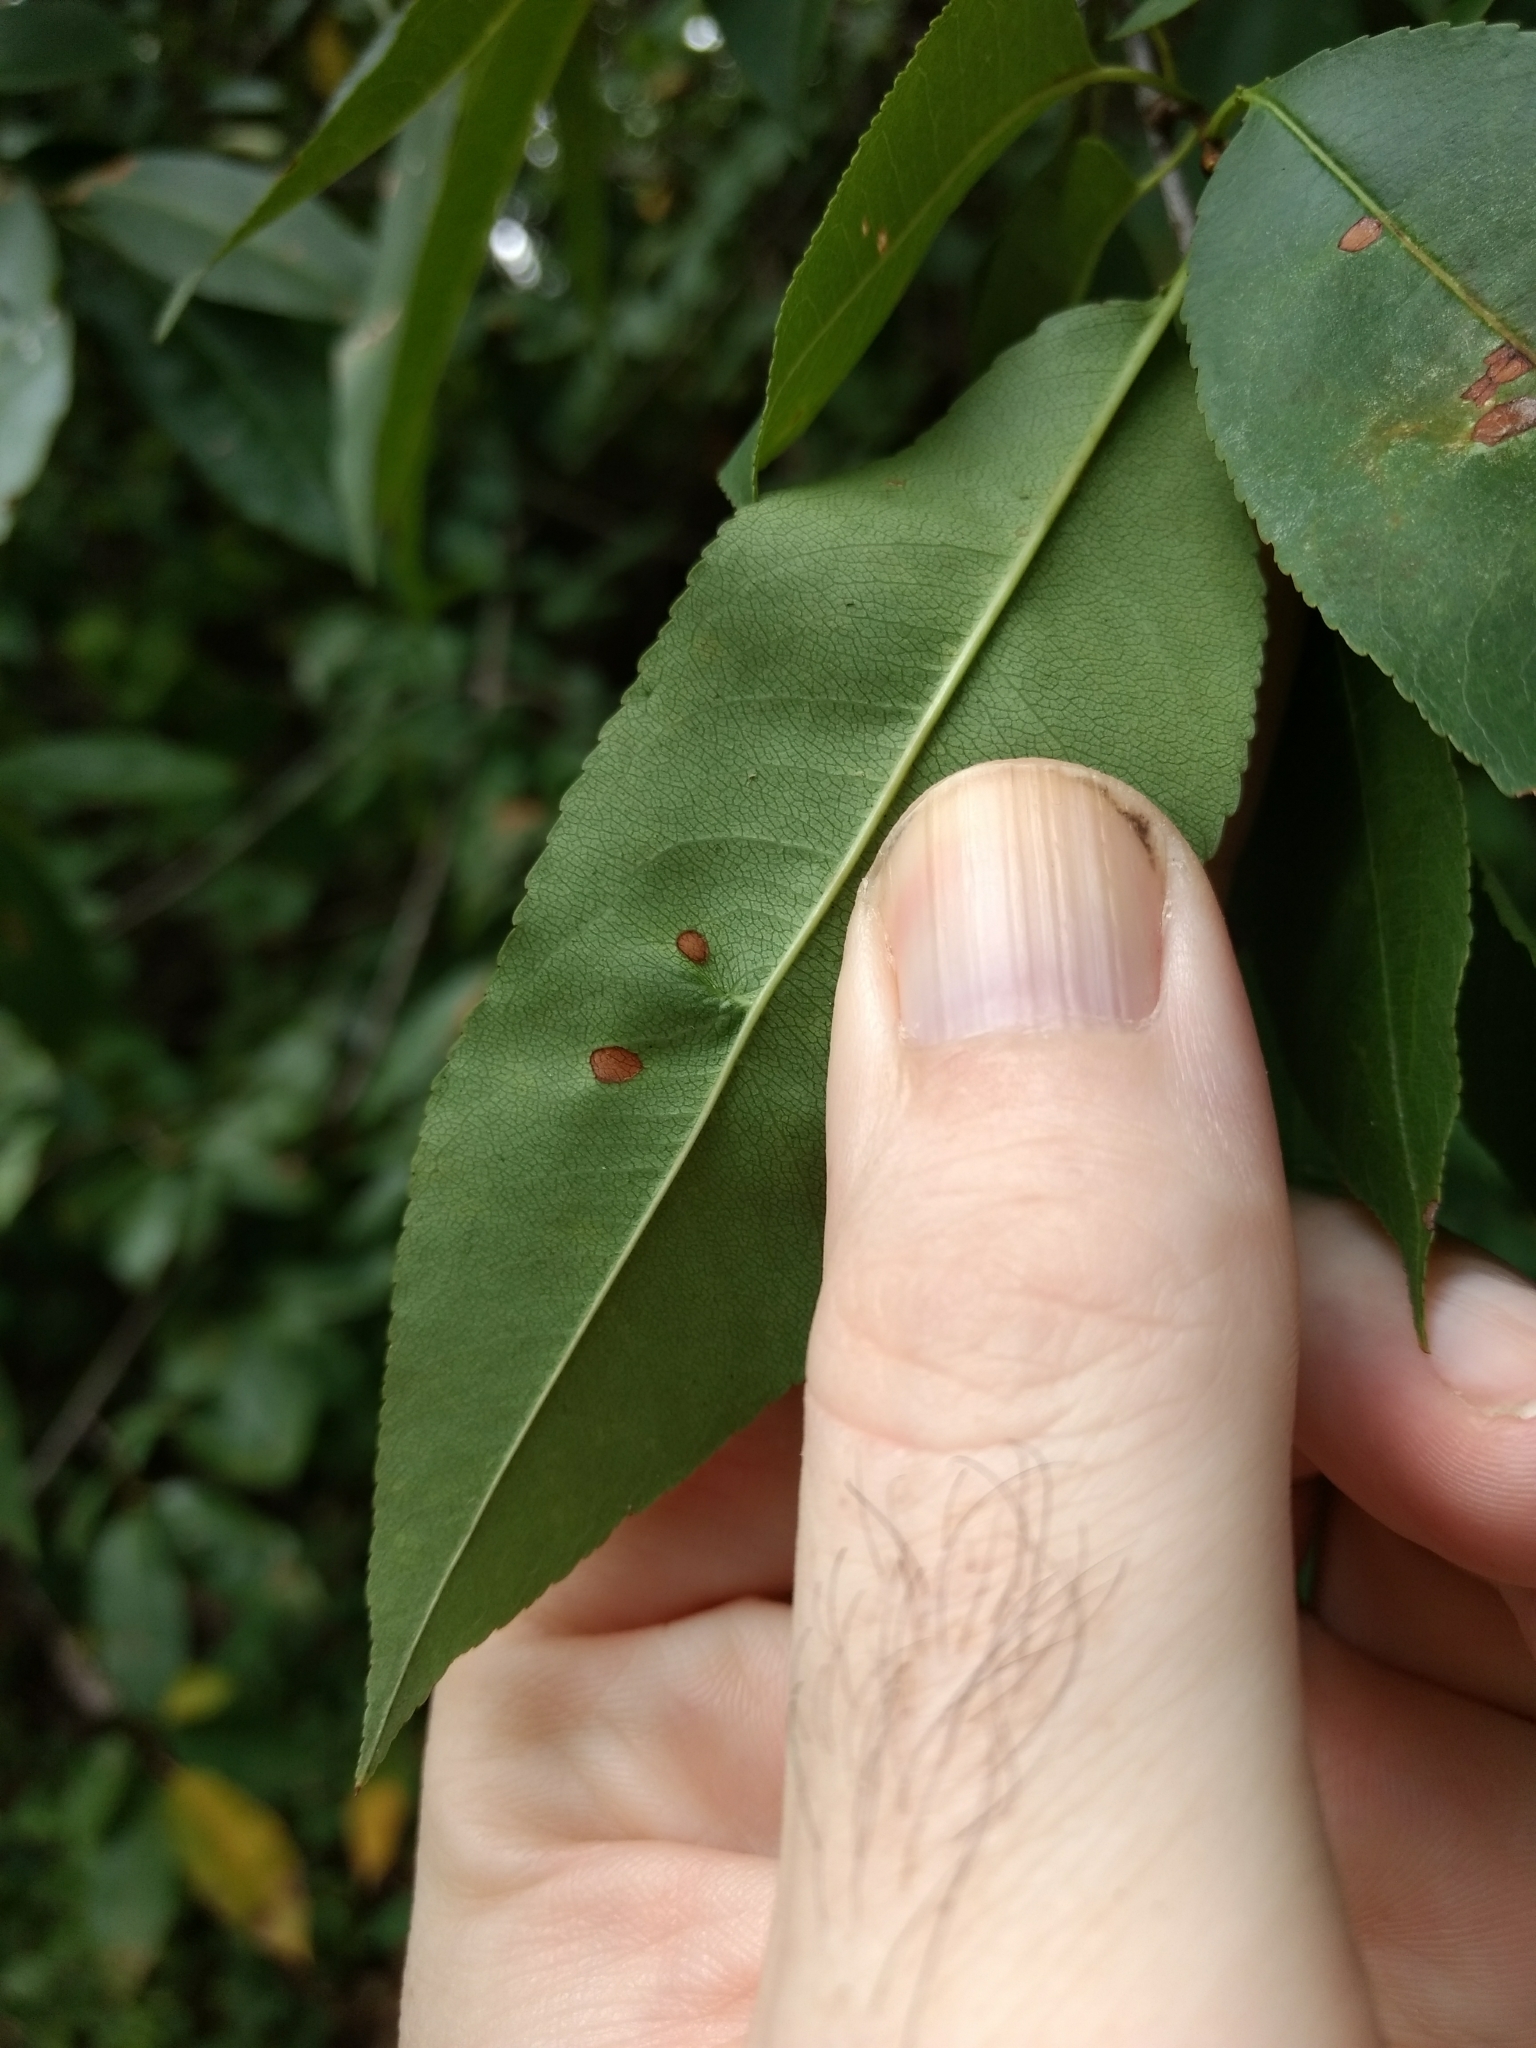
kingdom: Animalia
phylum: Arthropoda
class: Arachnida
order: Trombidiformes
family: Eriophyidae
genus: Eriophyes
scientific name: Eriophyes
